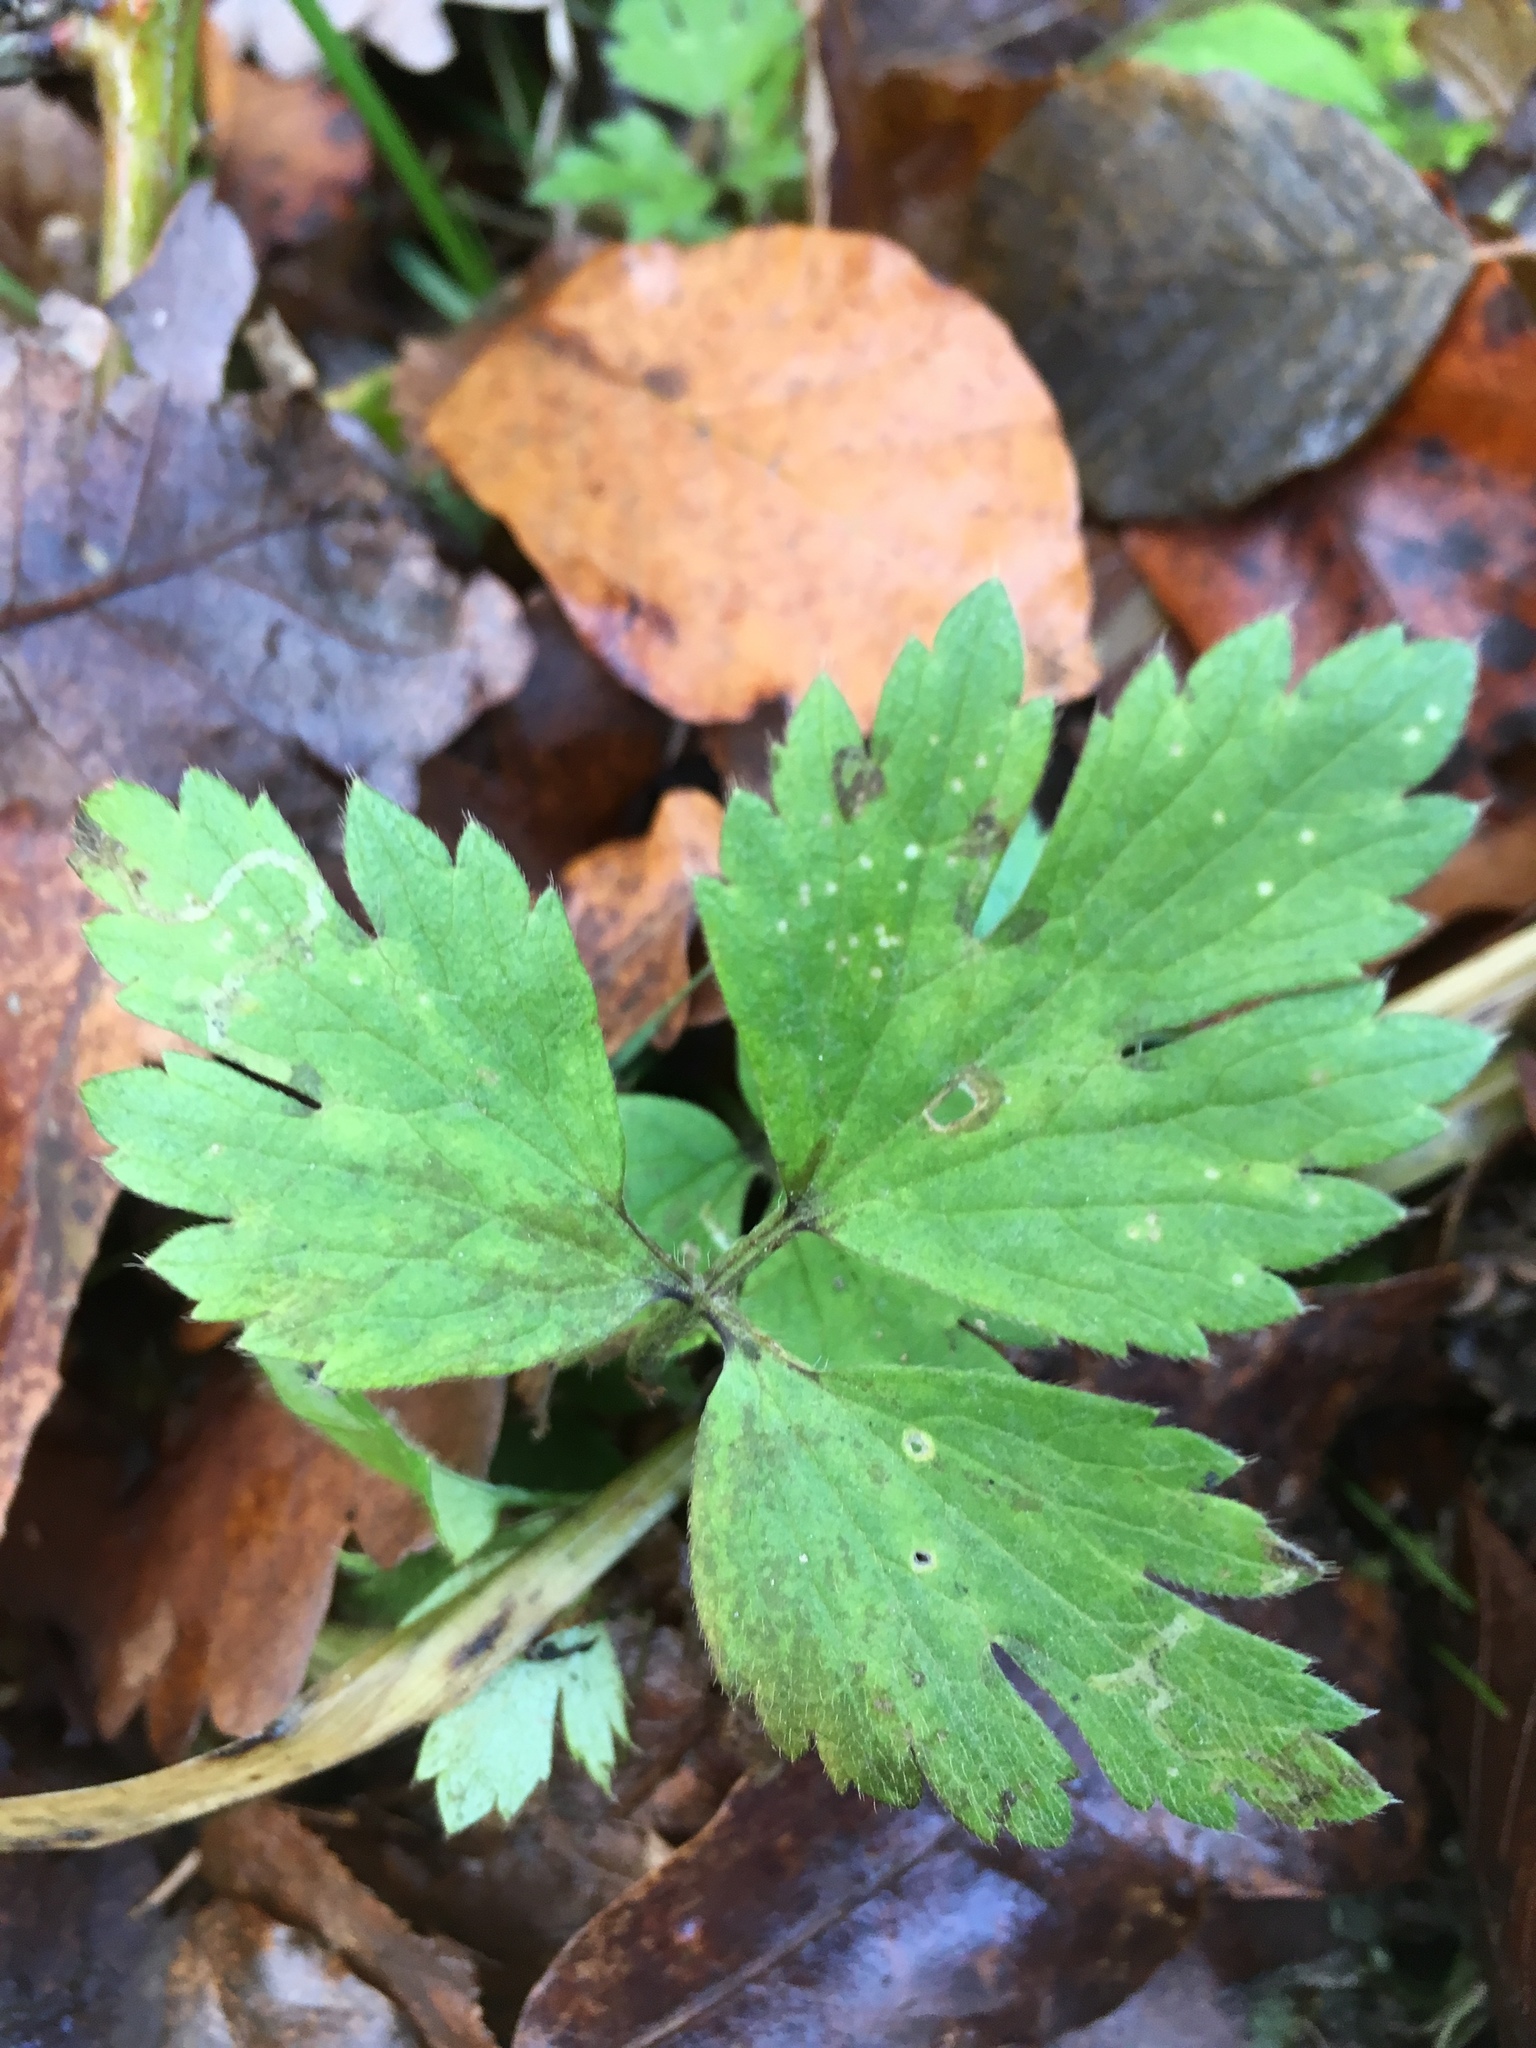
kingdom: Plantae
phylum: Tracheophyta
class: Magnoliopsida
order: Ranunculales
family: Ranunculaceae
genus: Ranunculus
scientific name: Ranunculus repens
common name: Creeping buttercup
